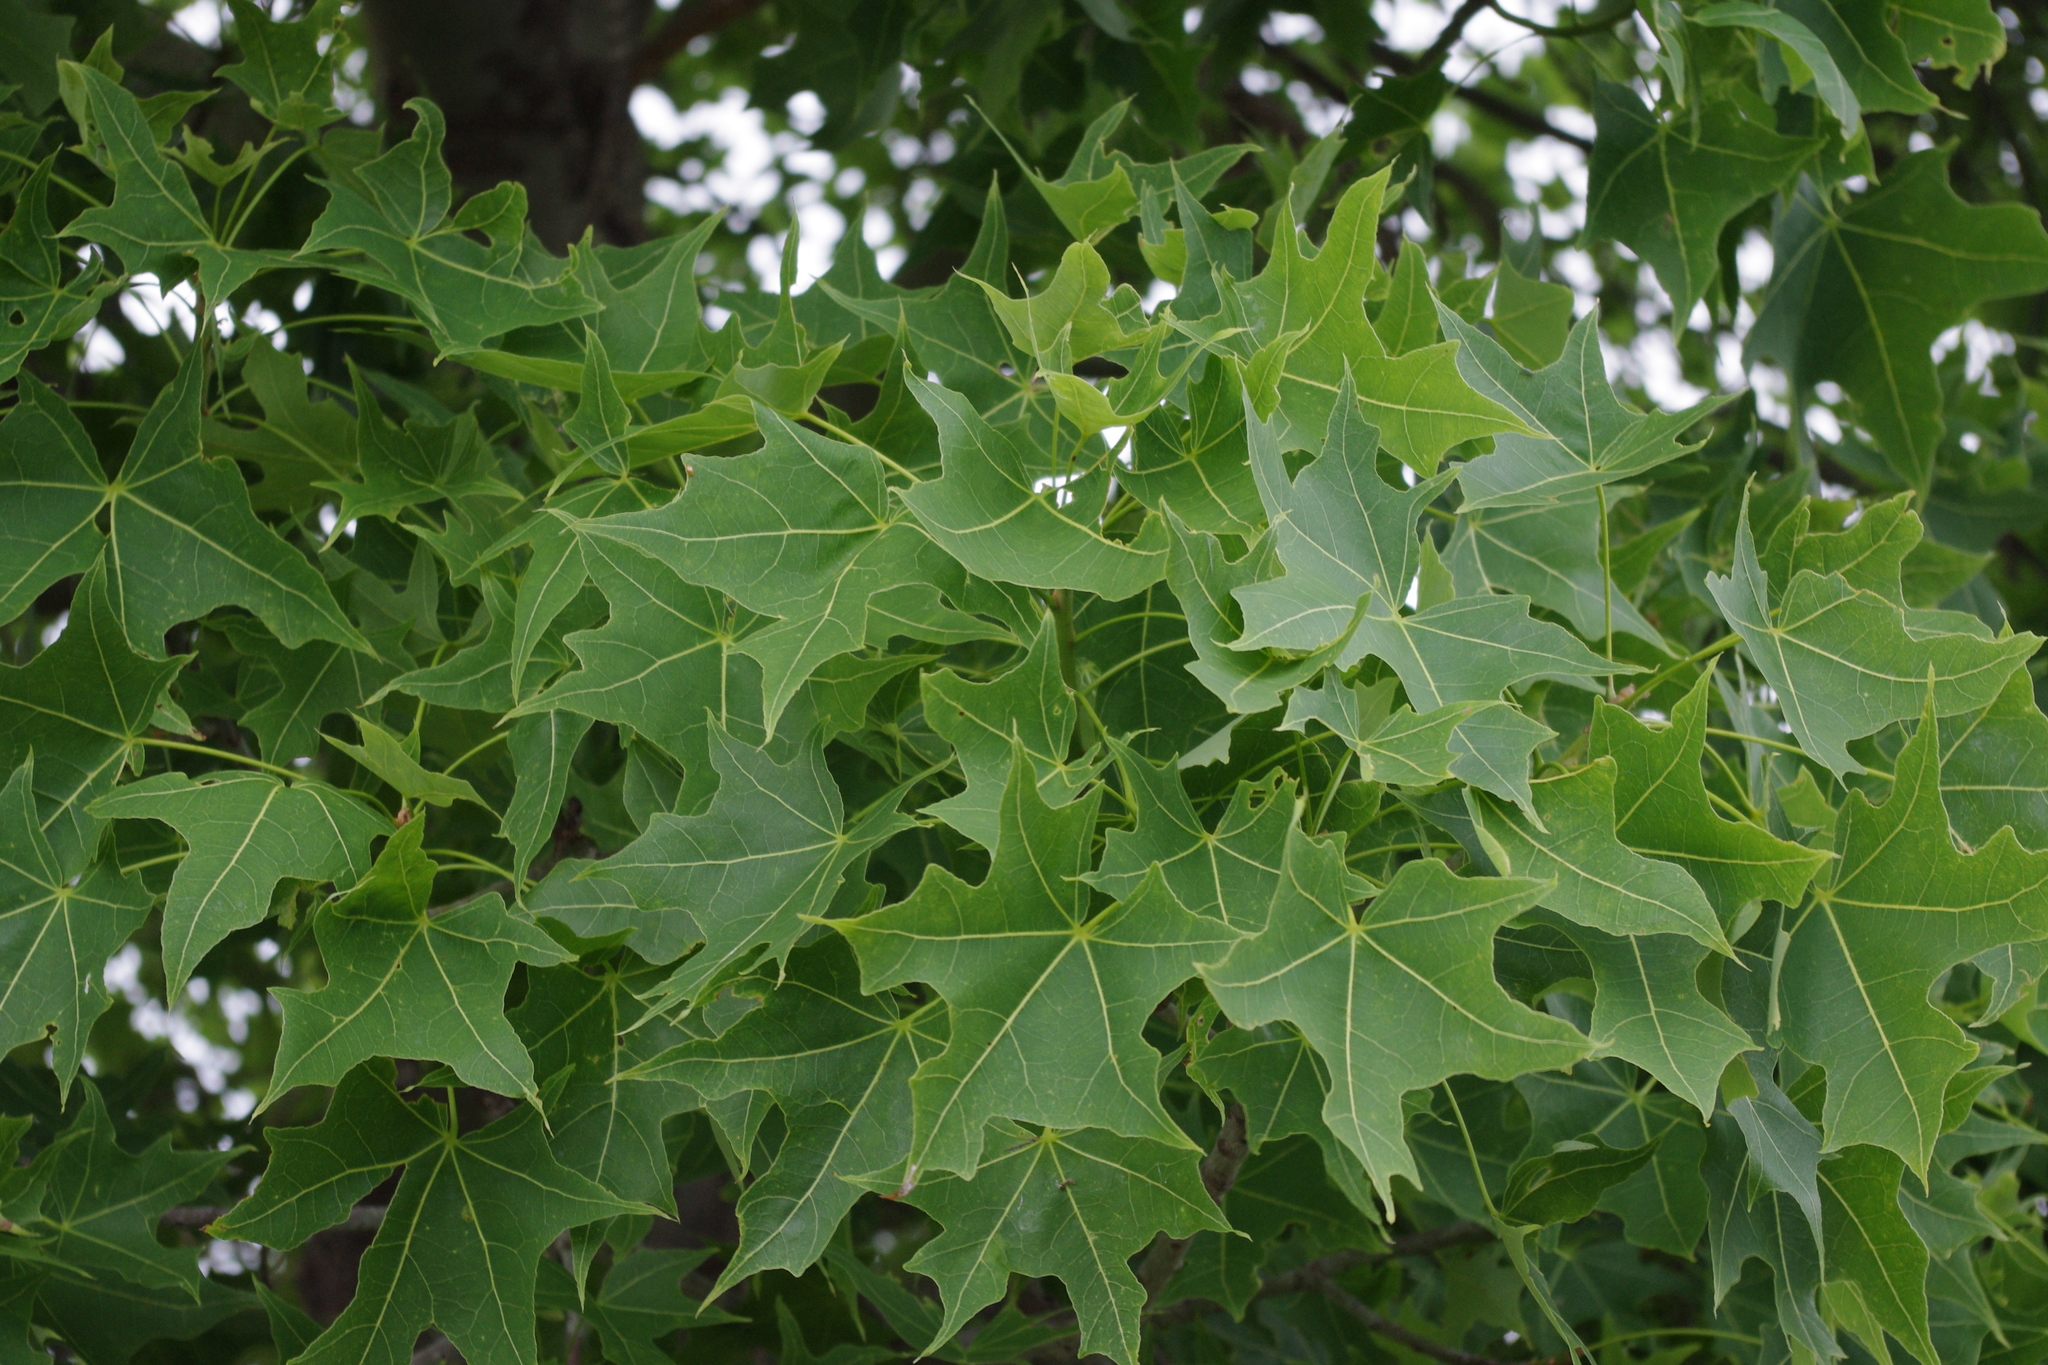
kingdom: Plantae
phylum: Tracheophyta
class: Magnoliopsida
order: Malvales
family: Malvaceae
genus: Brachychiton
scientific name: Brachychiton australis
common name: Large-leaf bottletree
